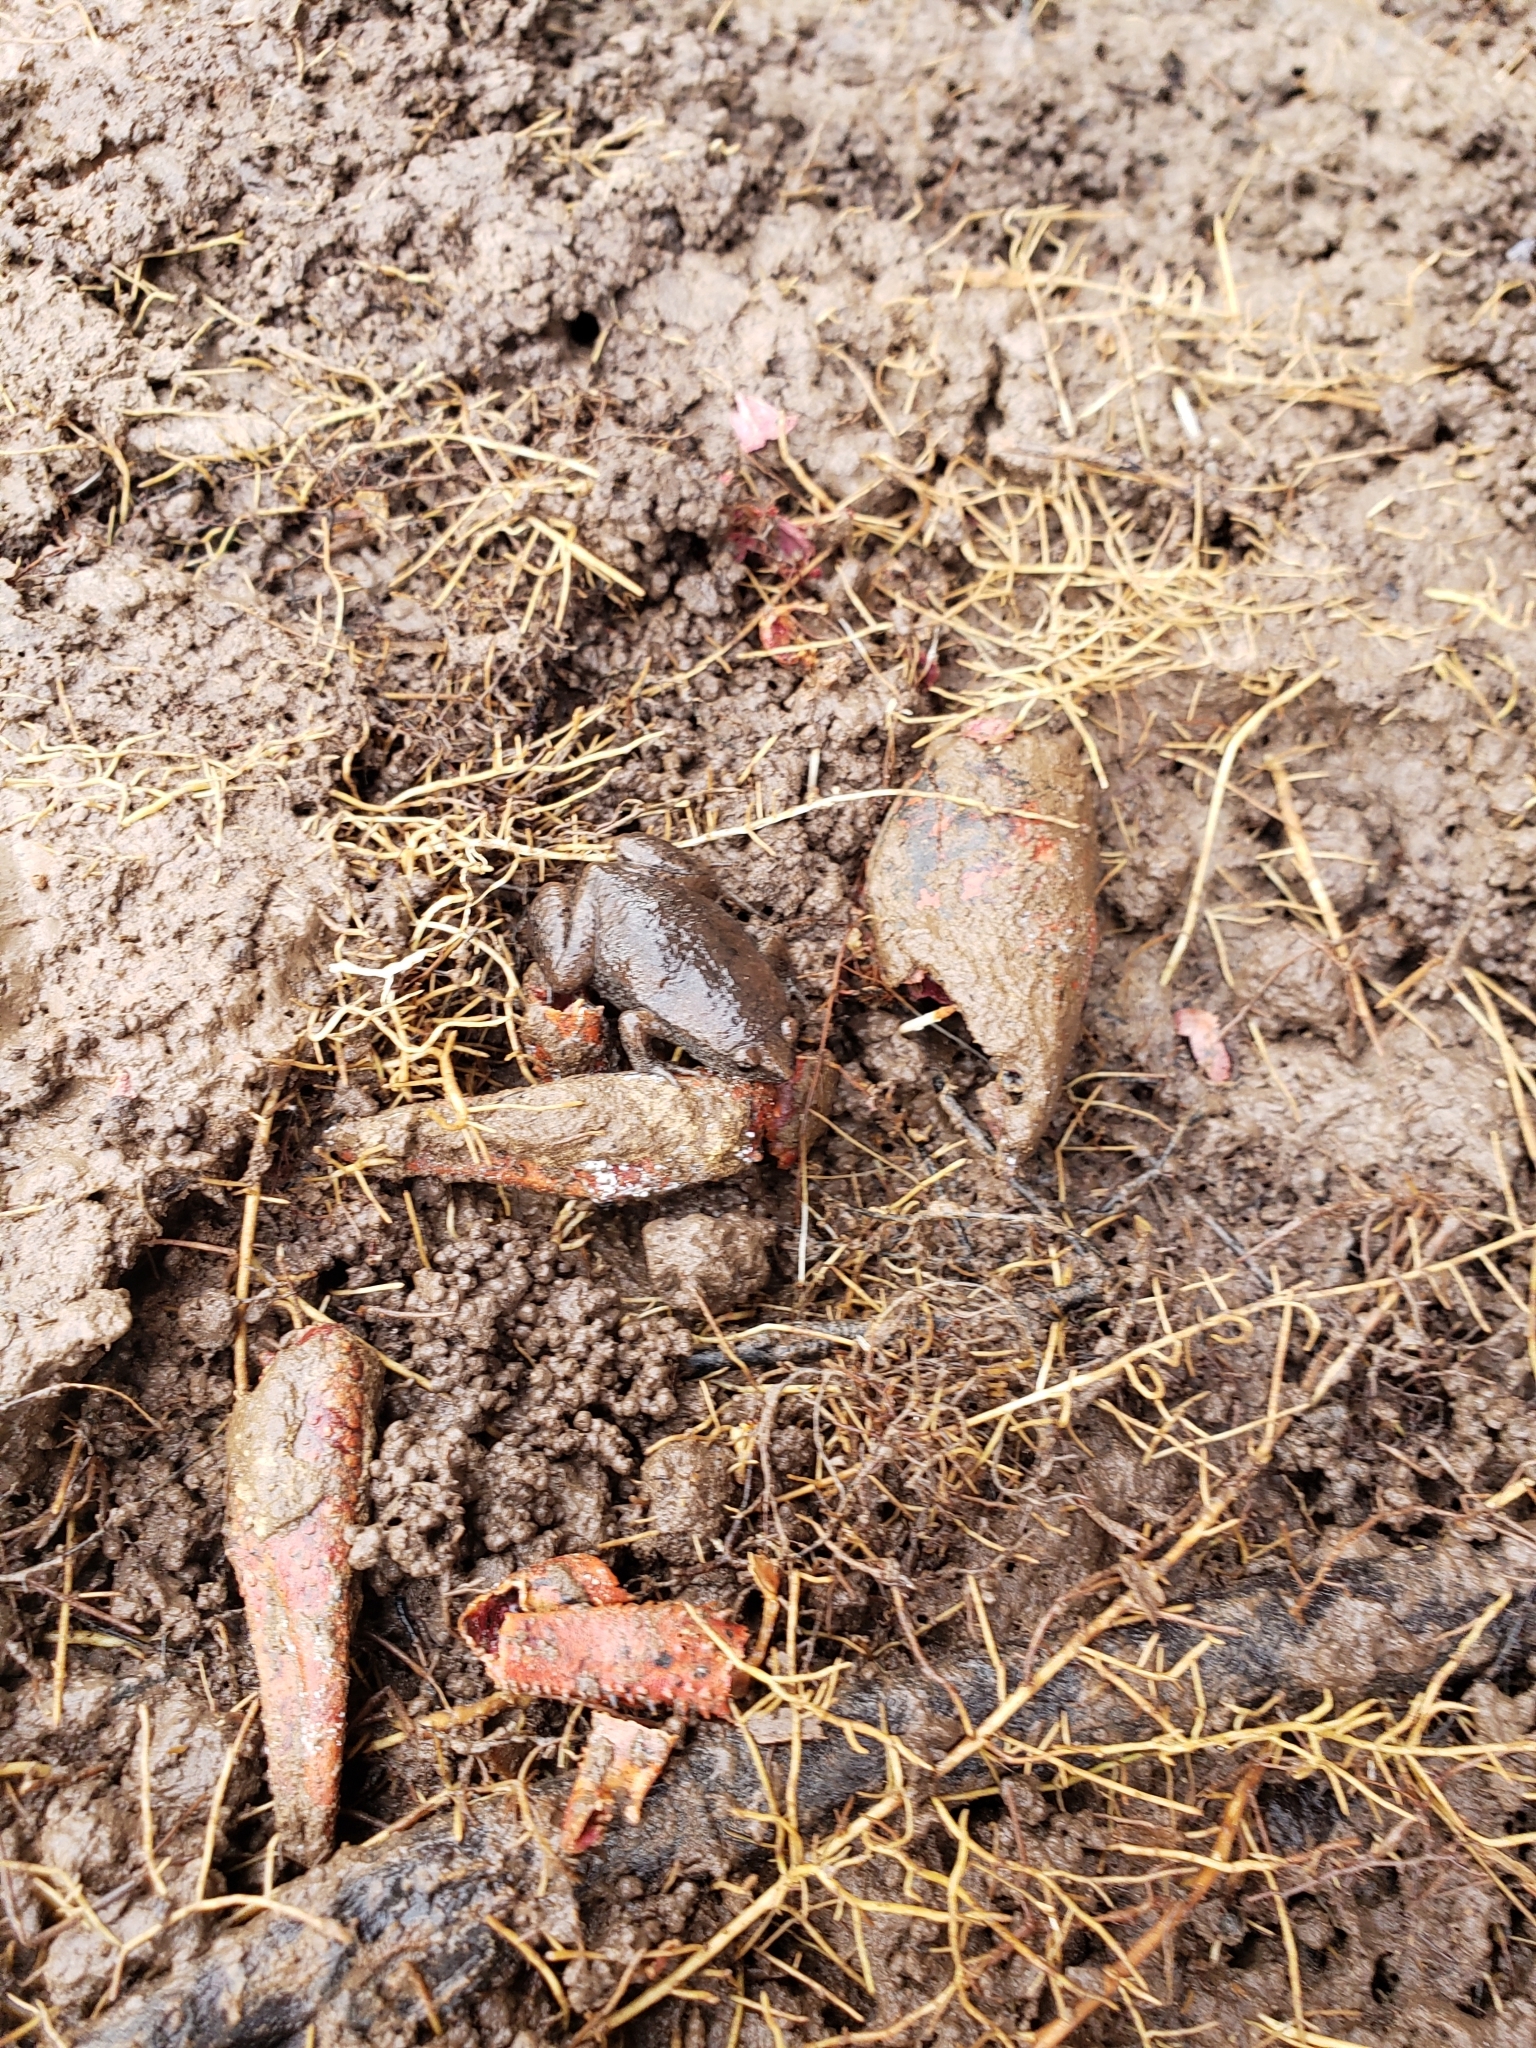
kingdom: Animalia
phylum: Chordata
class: Amphibia
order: Anura
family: Microhylidae
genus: Gastrophryne
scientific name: Gastrophryne carolinensis
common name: Eastern narrowmouth toad
